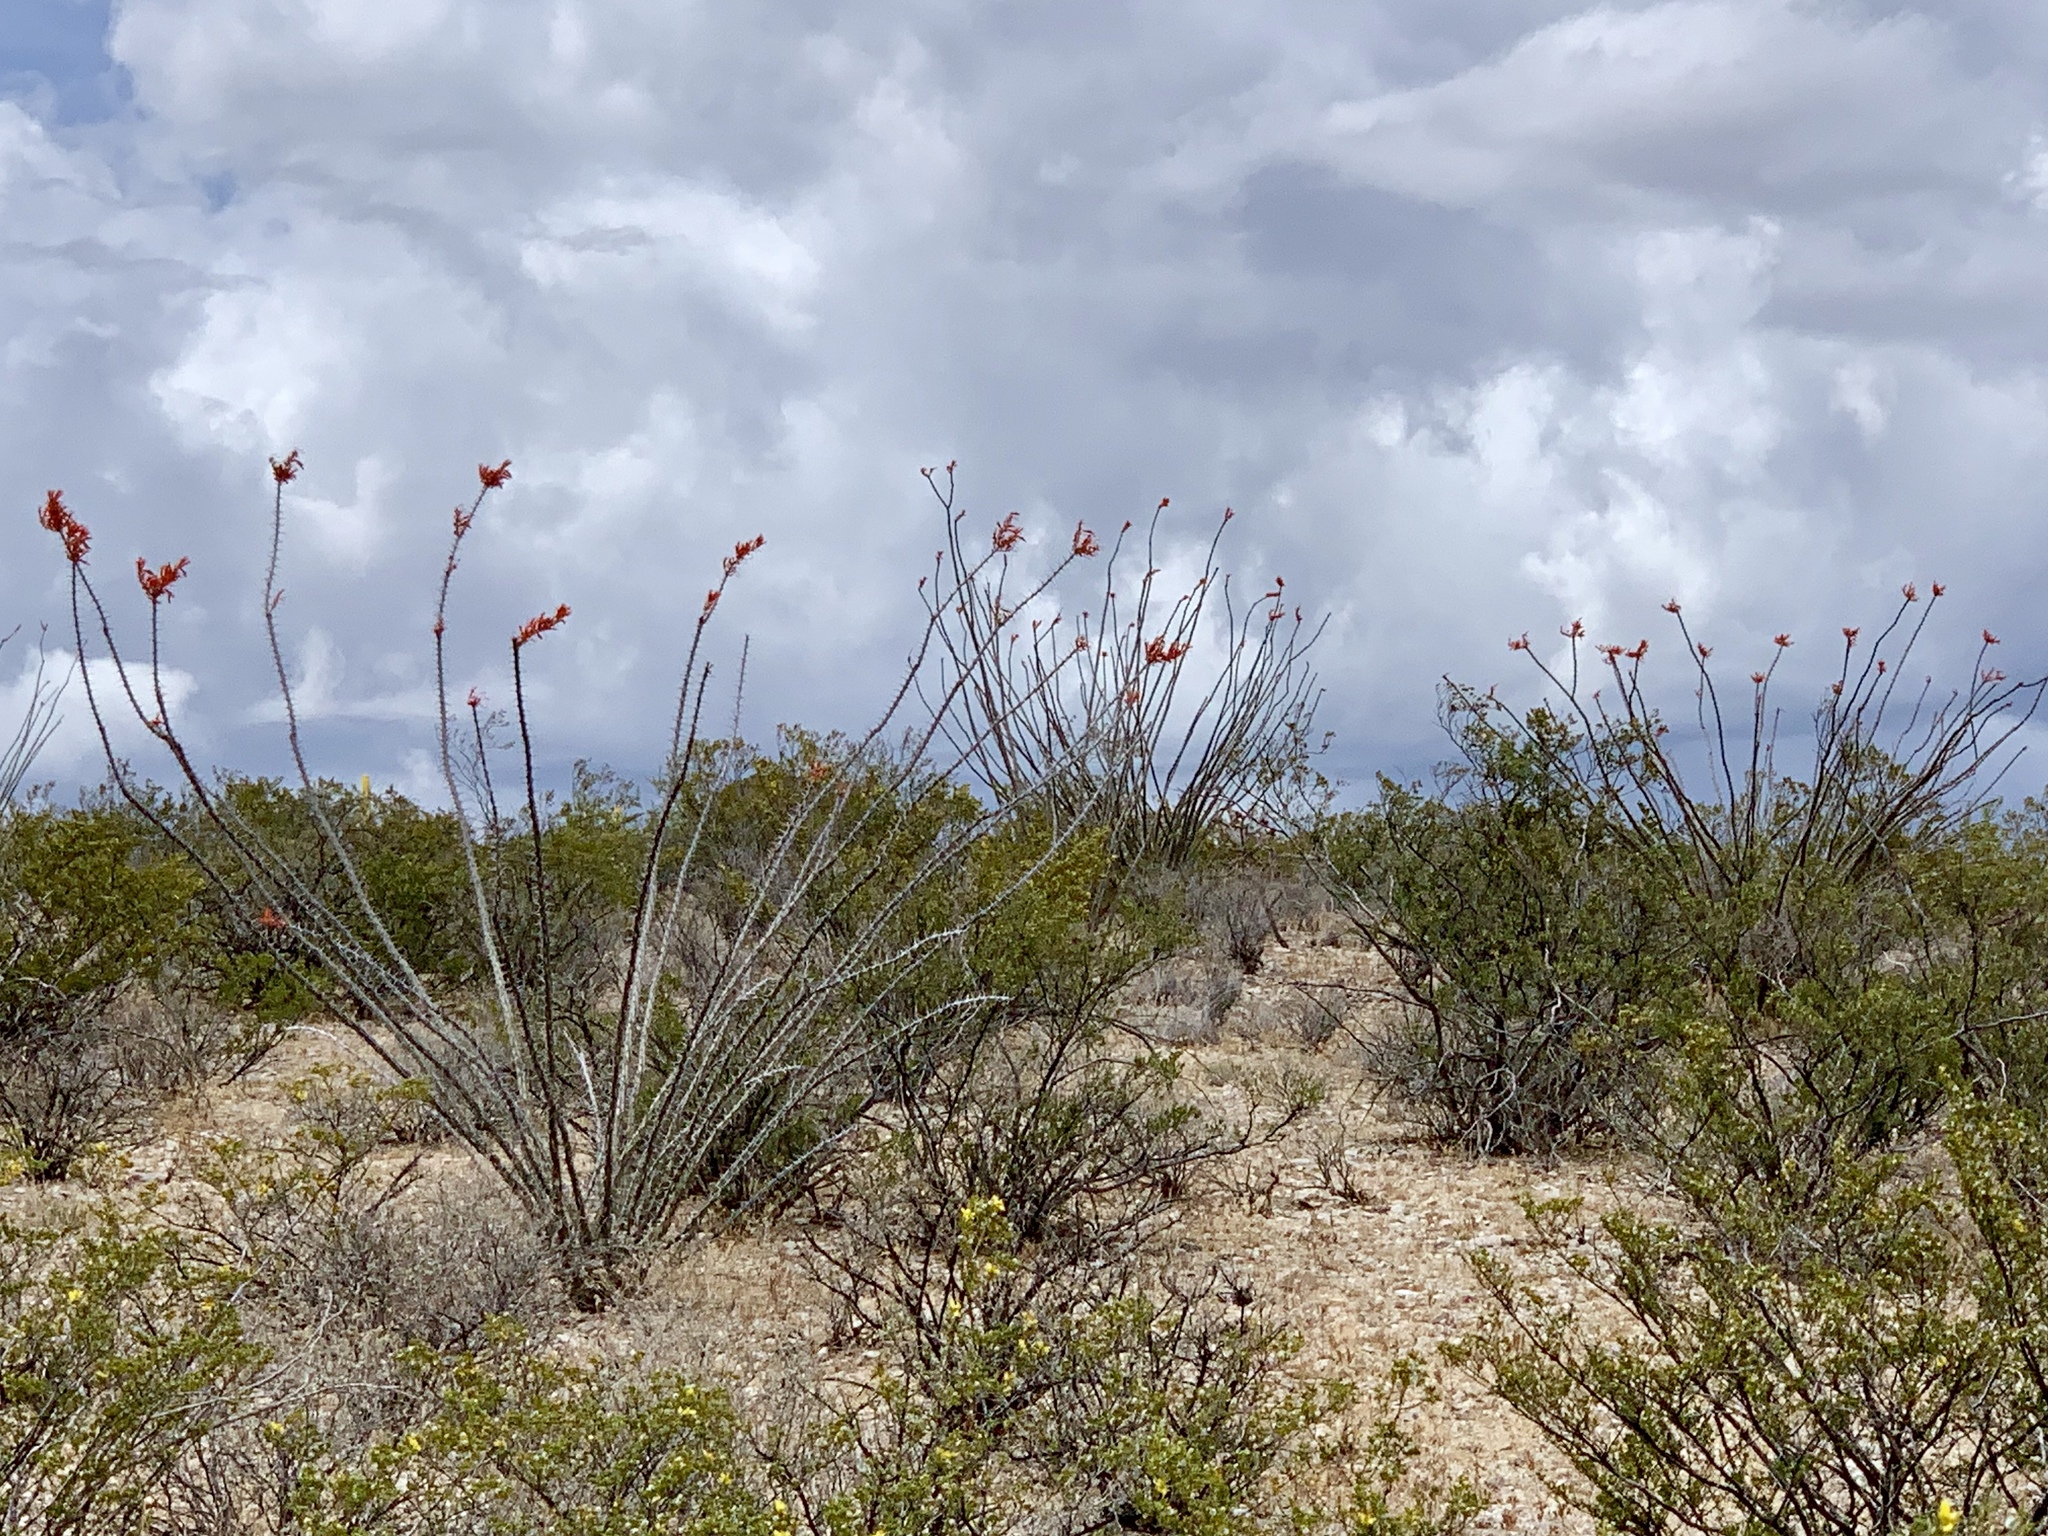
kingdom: Plantae
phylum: Tracheophyta
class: Magnoliopsida
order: Ericales
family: Fouquieriaceae
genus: Fouquieria
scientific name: Fouquieria splendens
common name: Vine-cactus
